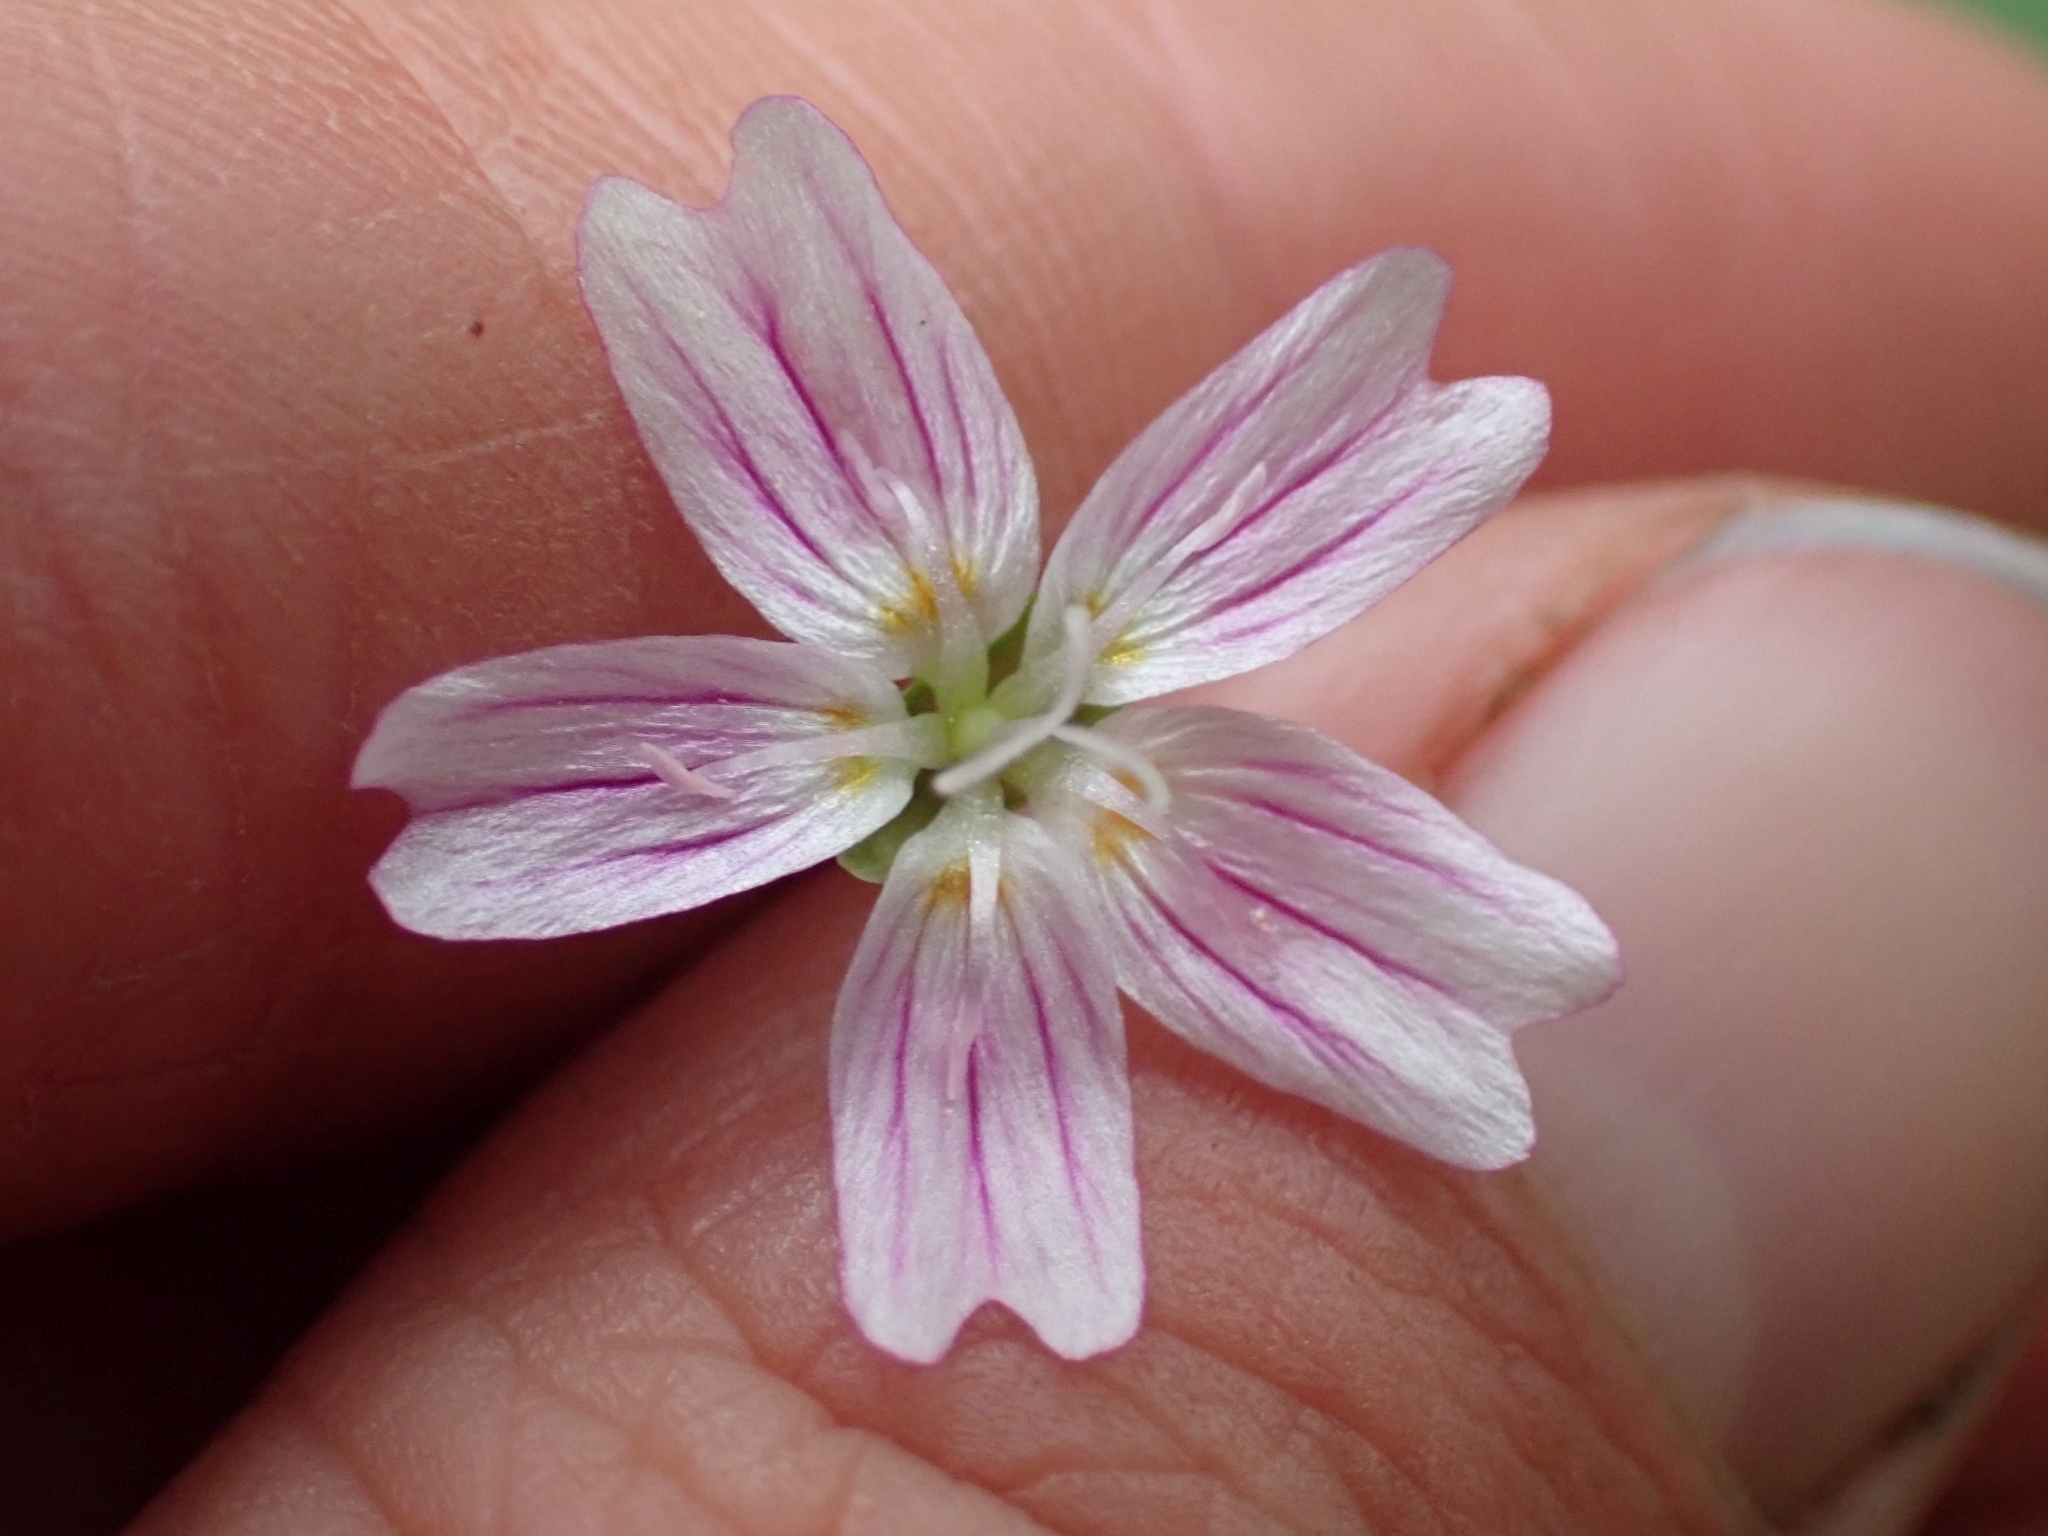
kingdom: Plantae
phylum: Tracheophyta
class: Magnoliopsida
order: Caryophyllales
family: Montiaceae
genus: Claytonia
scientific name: Claytonia sibirica
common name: Pink purslane
